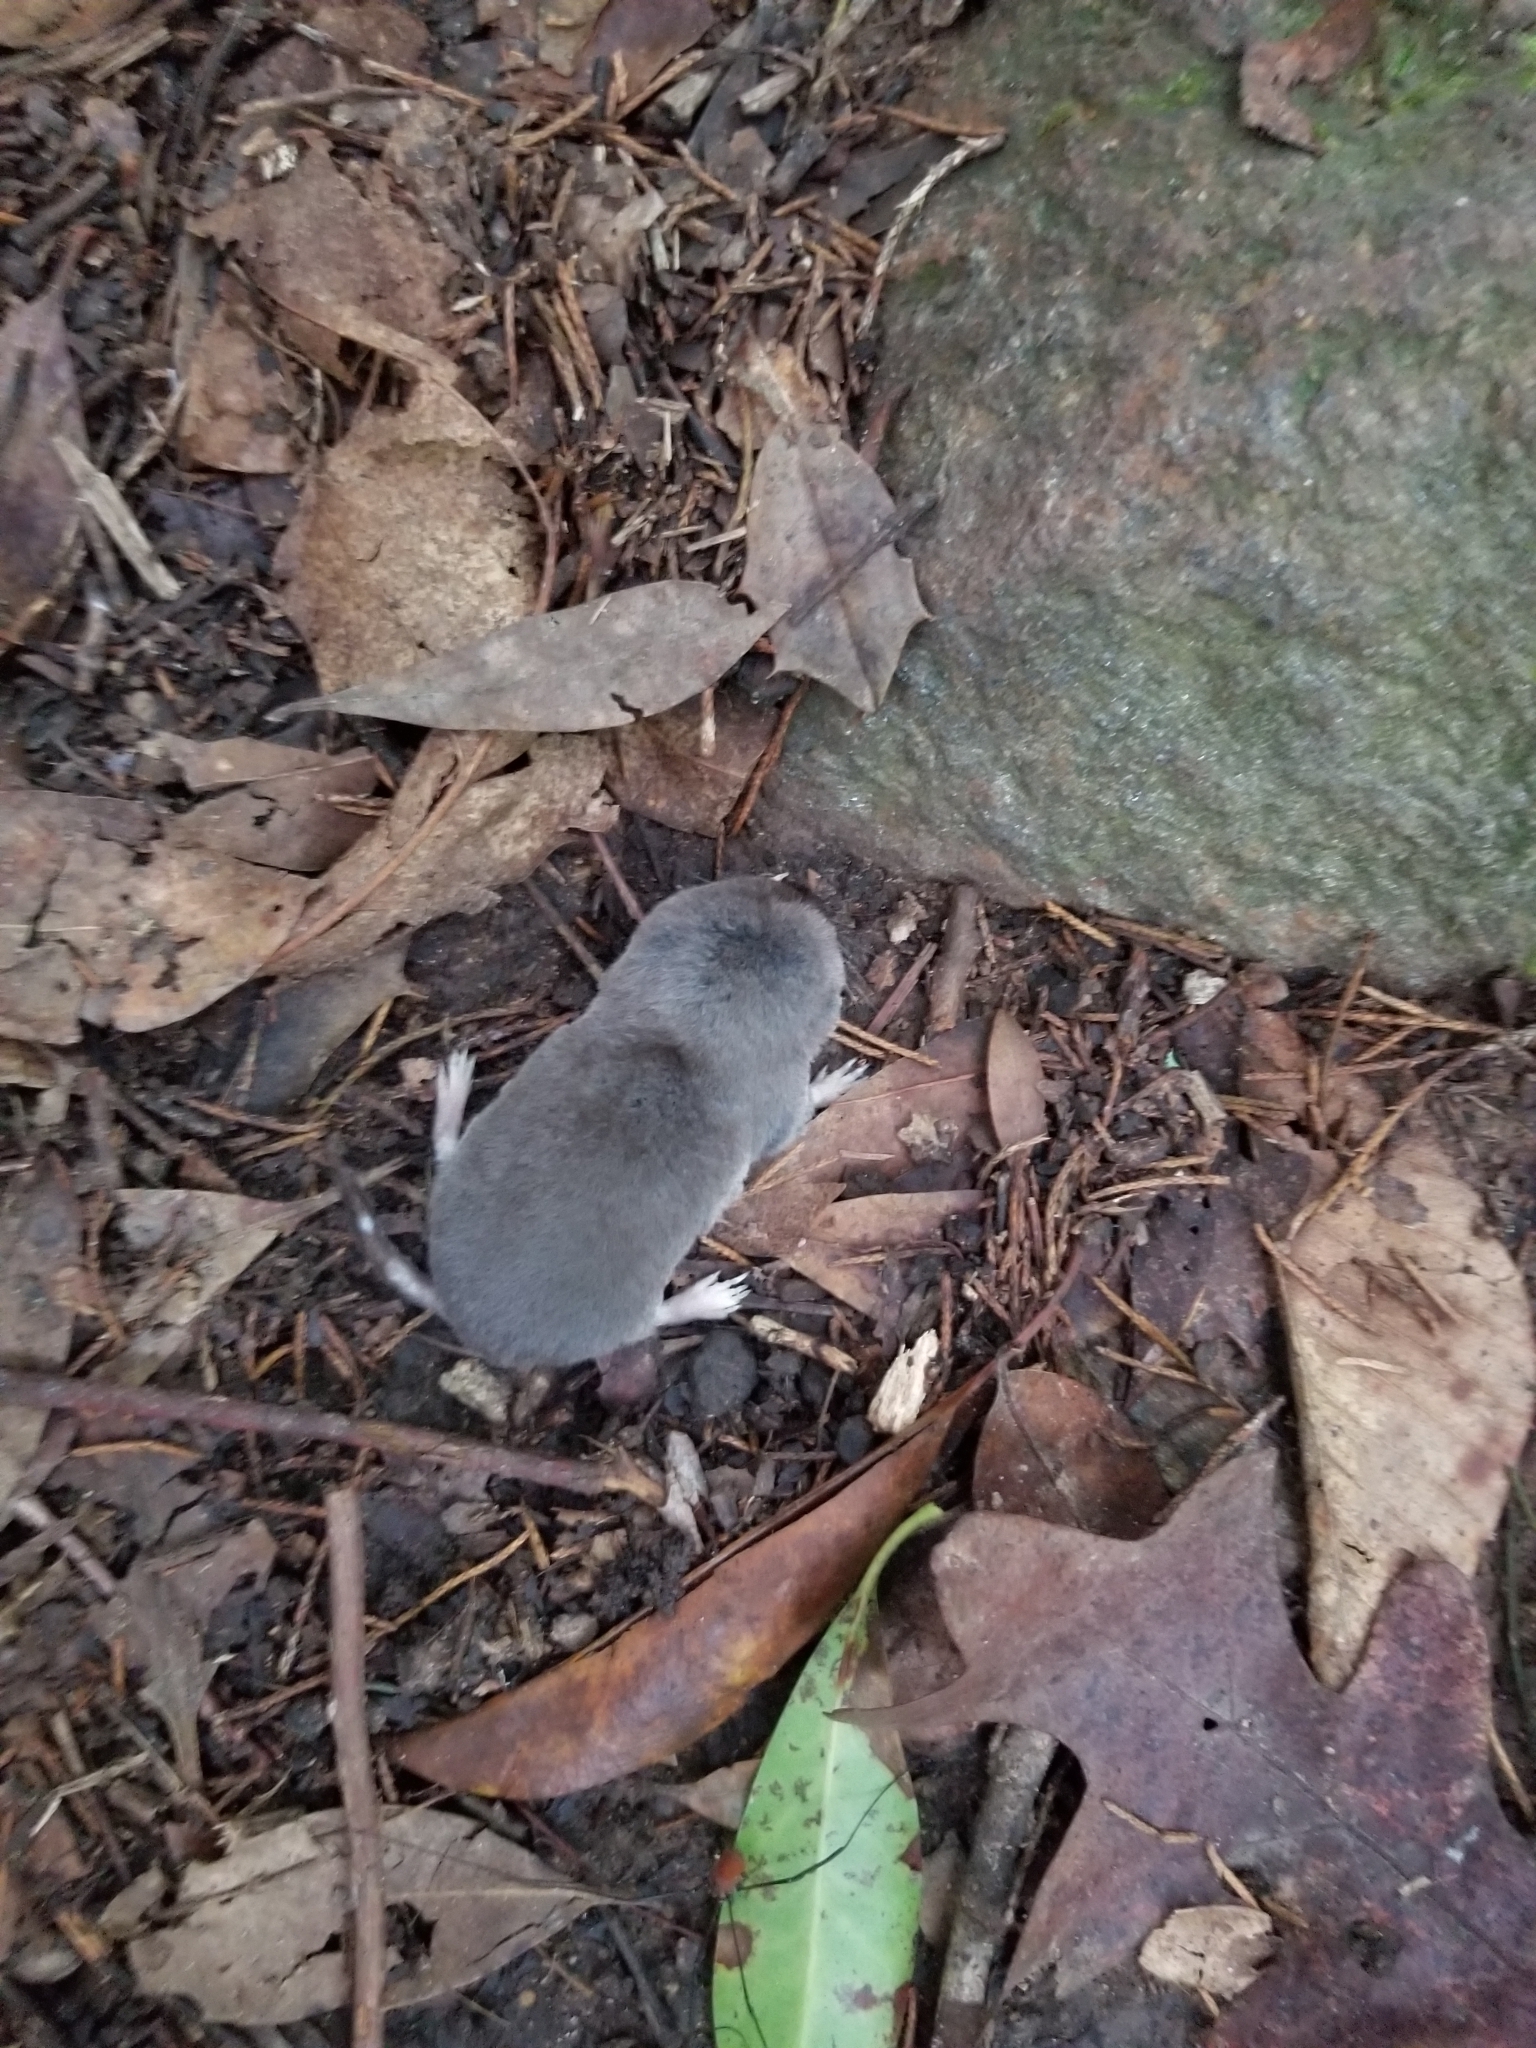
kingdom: Animalia
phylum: Chordata
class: Mammalia
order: Soricomorpha
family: Soricidae
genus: Blarina
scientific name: Blarina brevicauda
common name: Northern short-tailed shrew
